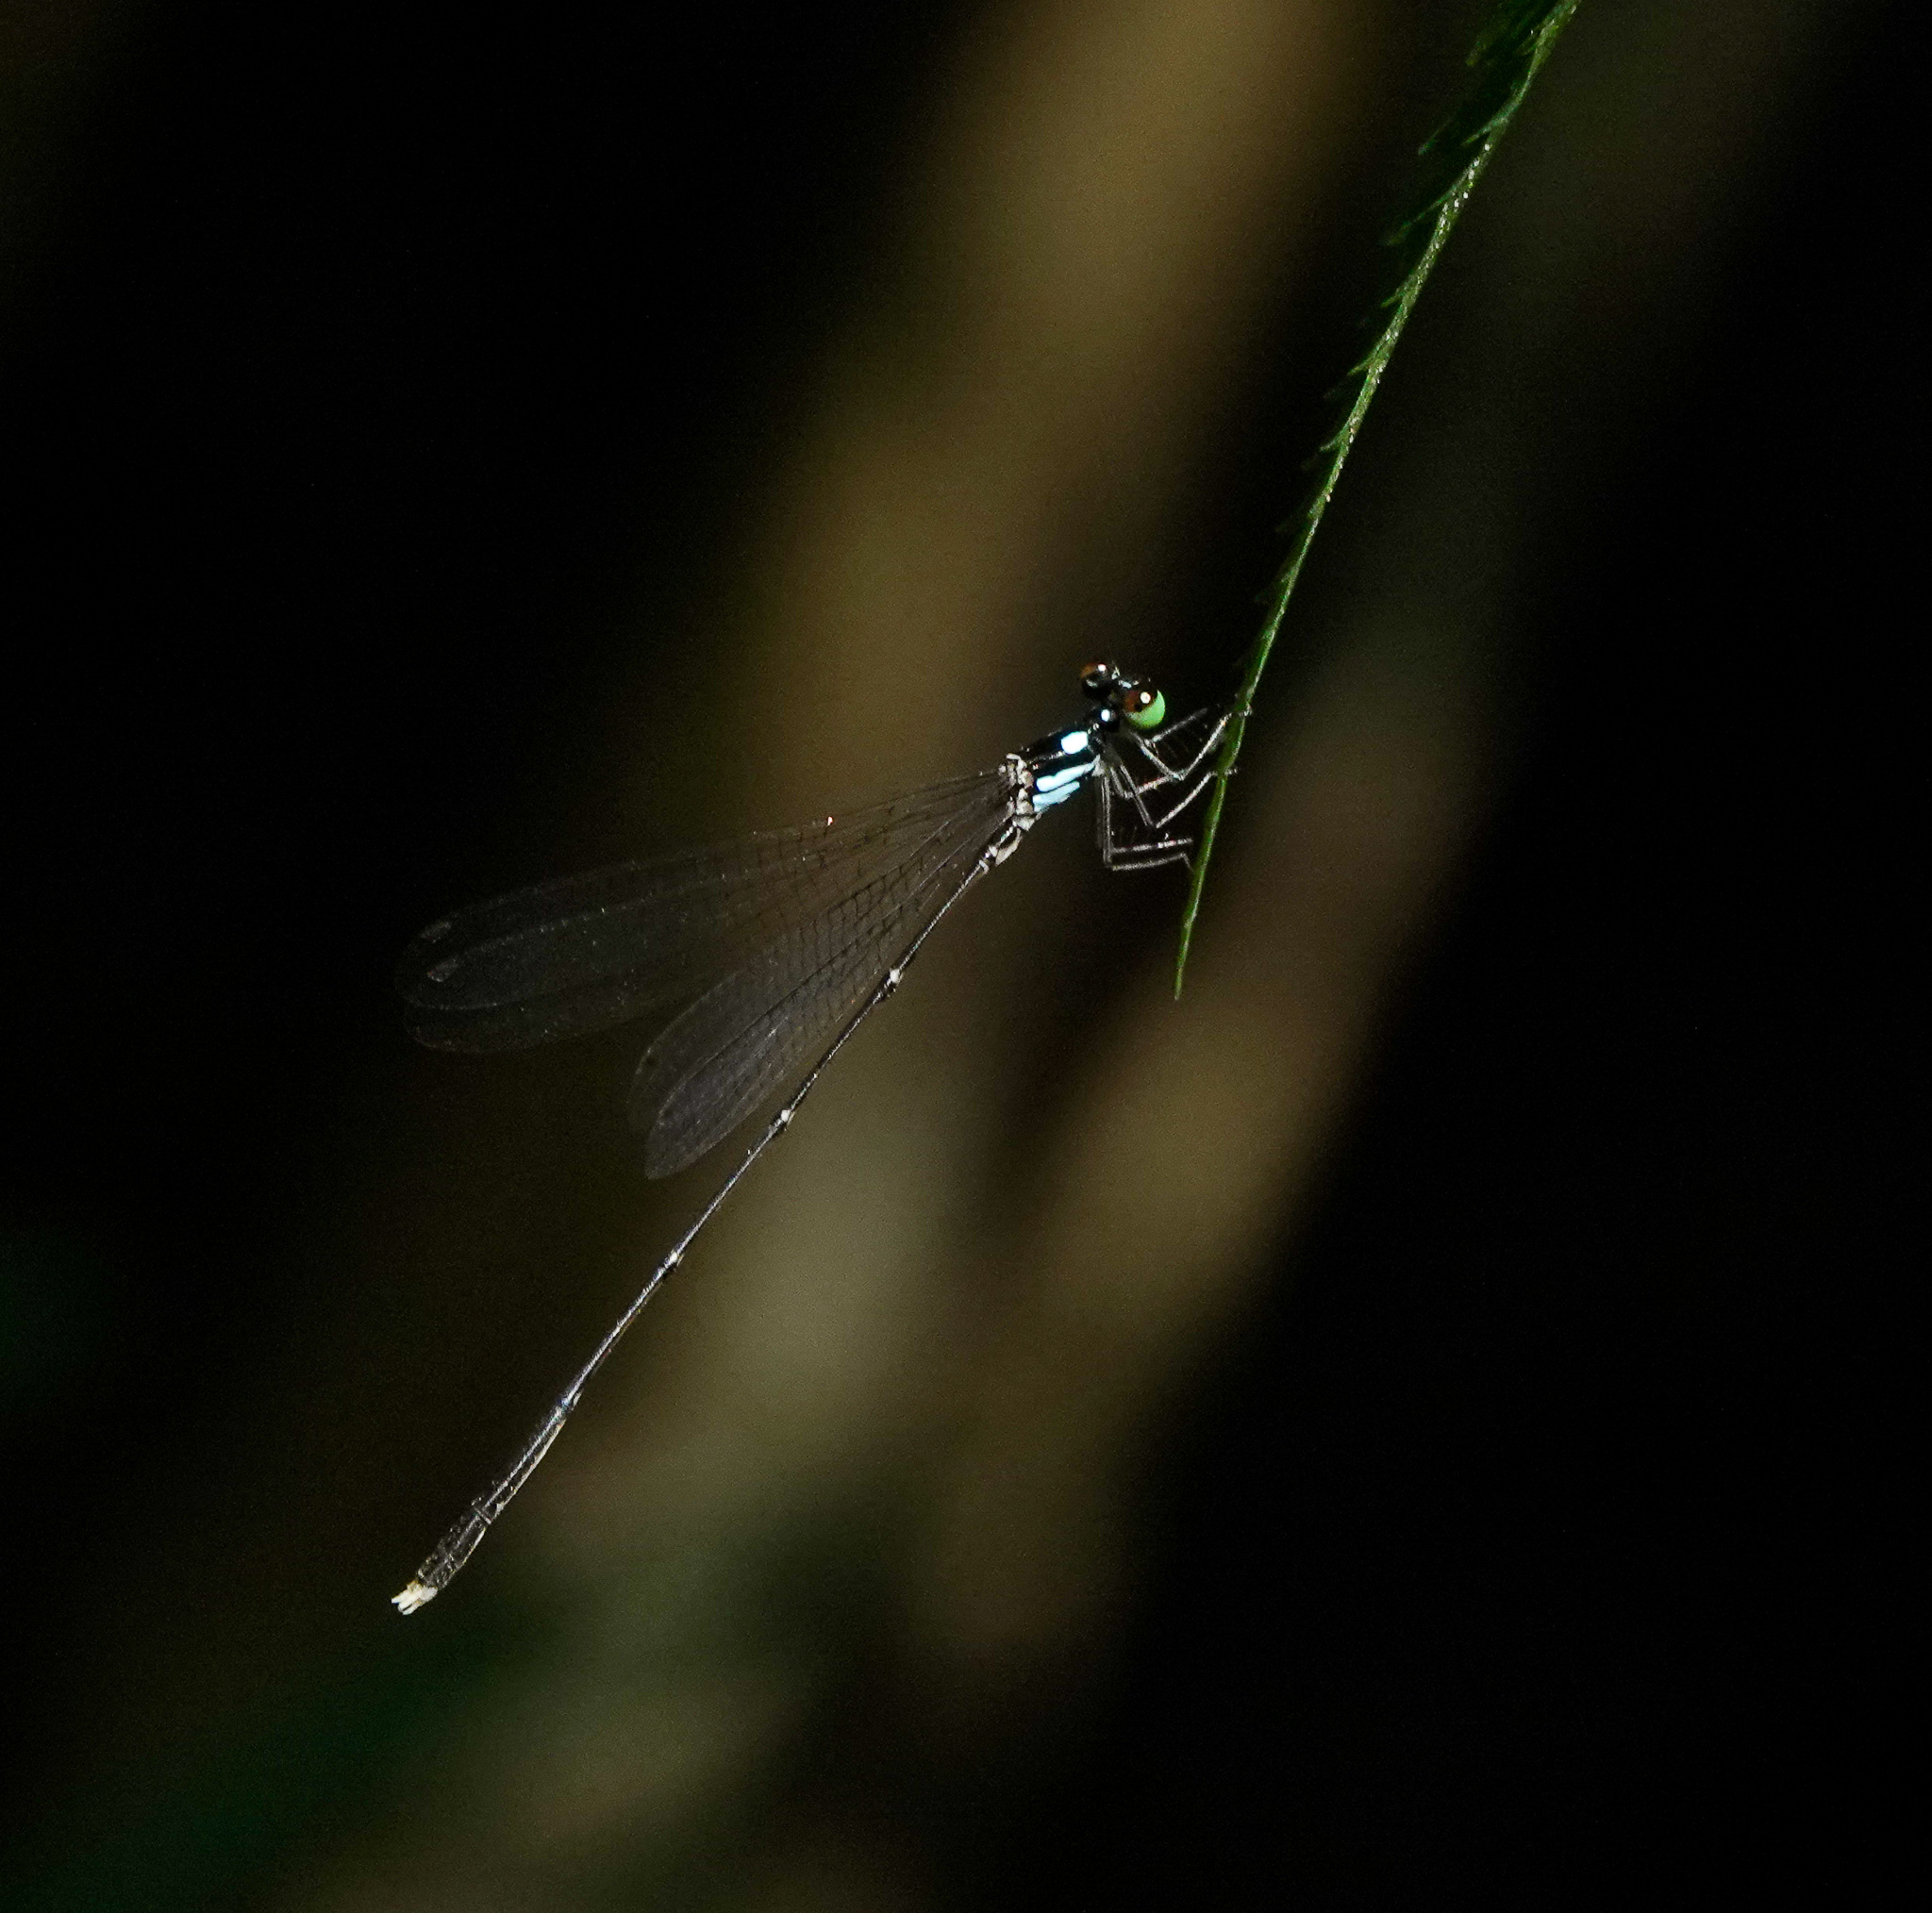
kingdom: Animalia
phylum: Arthropoda
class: Insecta
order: Odonata
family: Platycnemididae
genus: Coeliccia
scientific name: Coeliccia bimaculata
